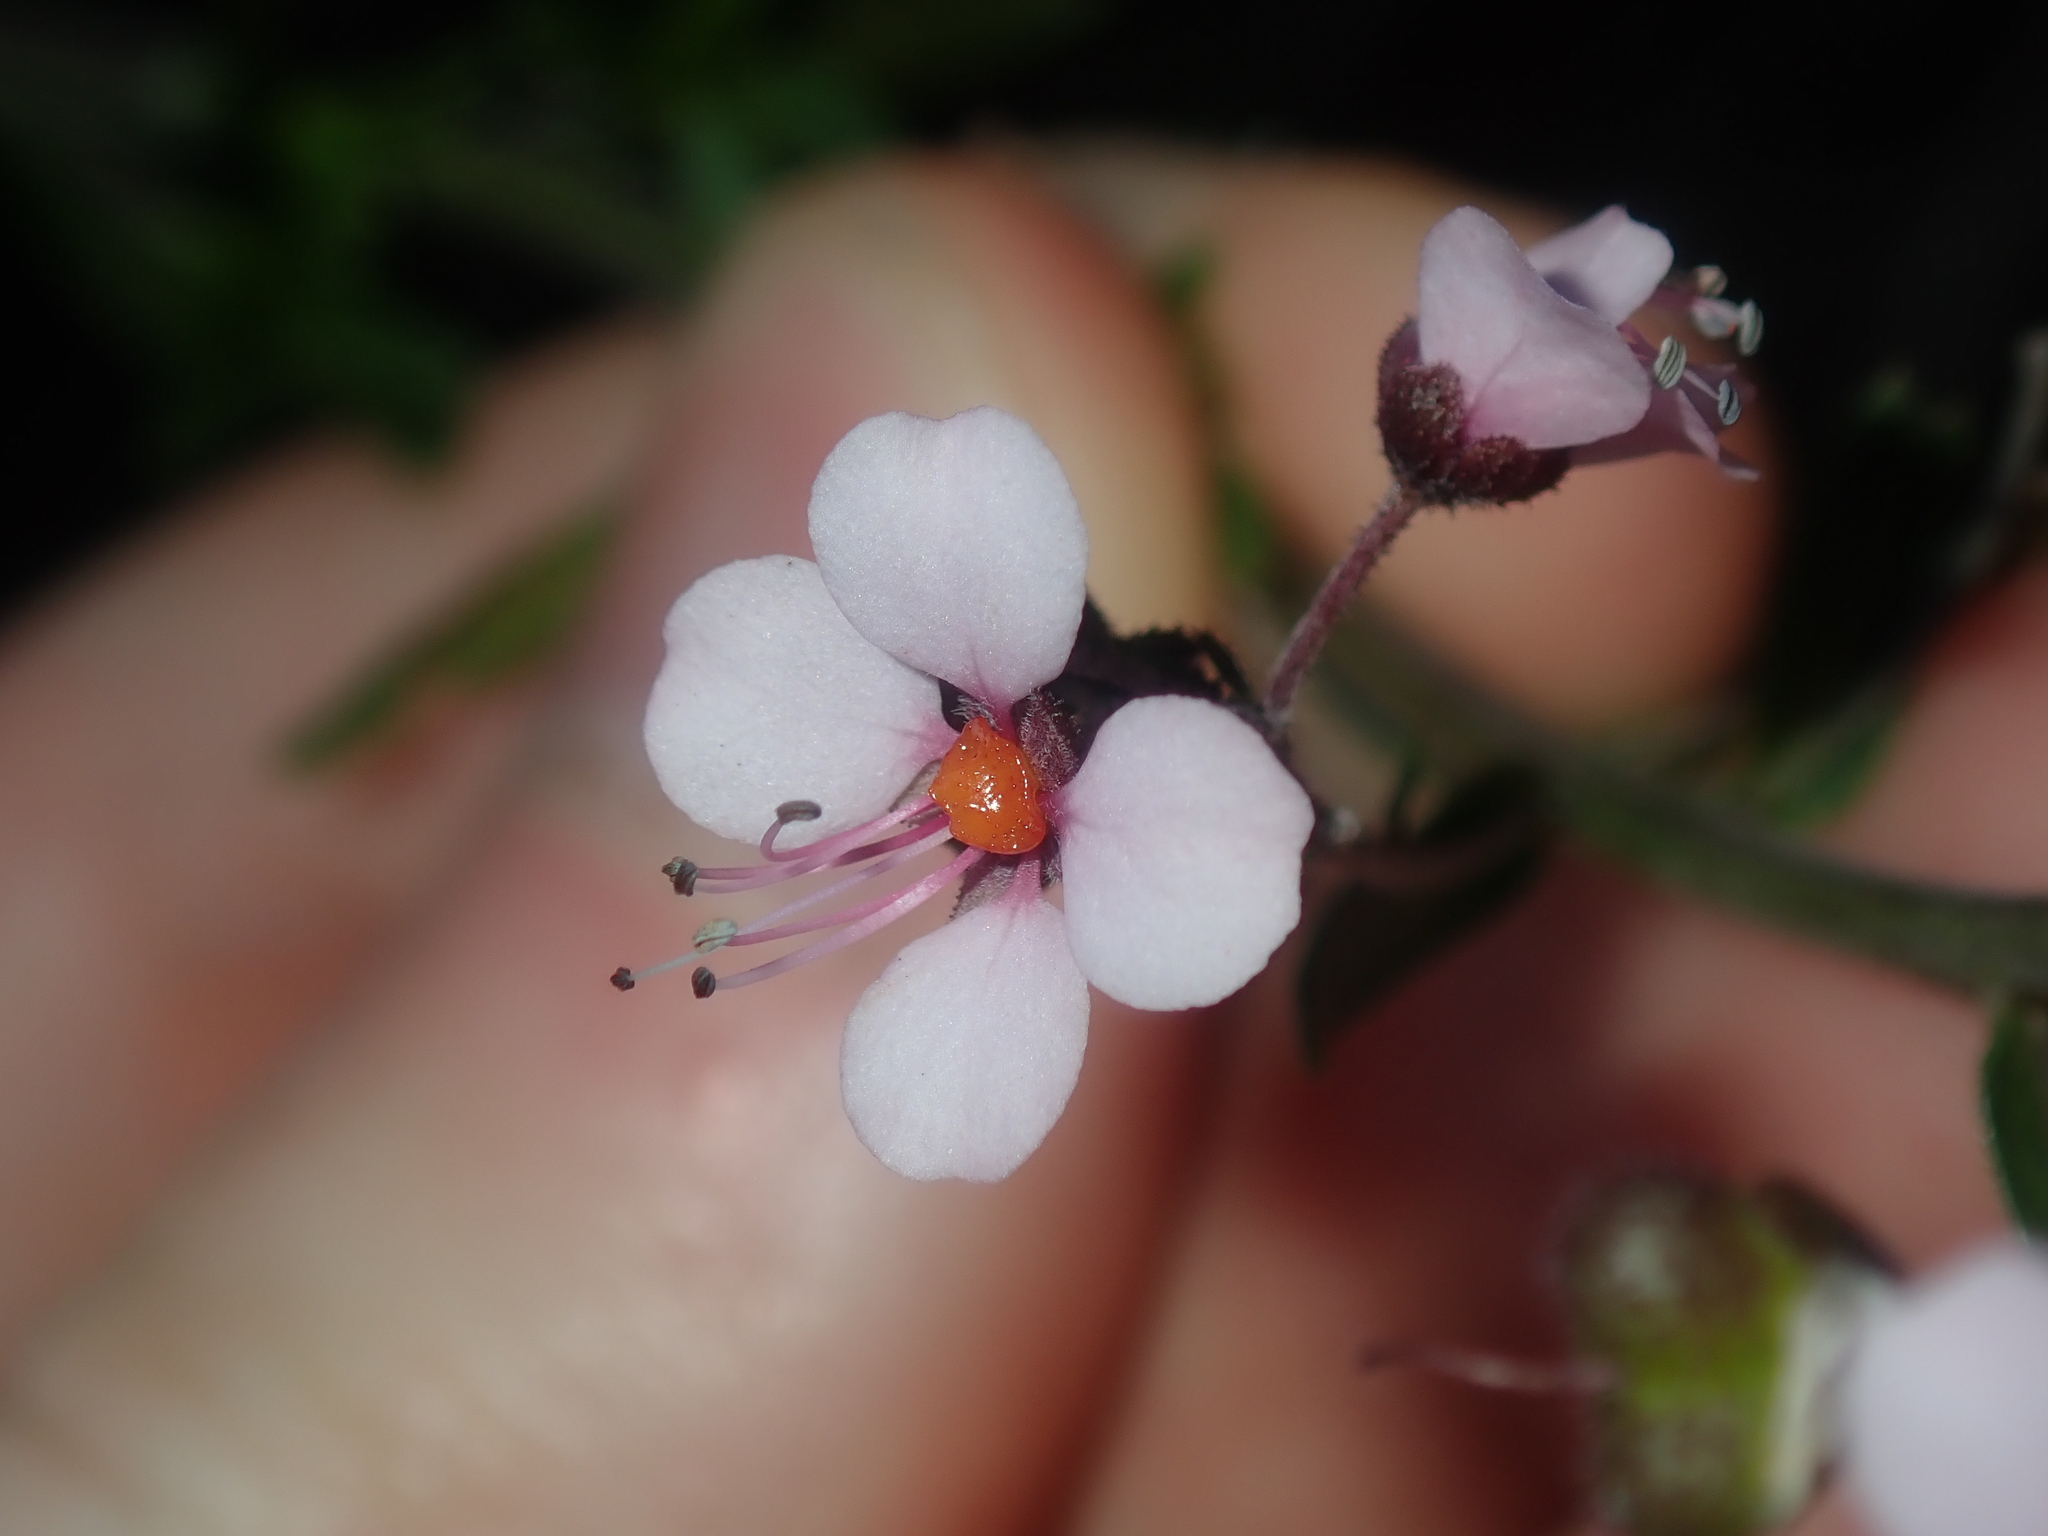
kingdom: Plantae
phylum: Tracheophyta
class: Magnoliopsida
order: Sapindales
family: Sapindaceae
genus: Diplopeltis
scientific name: Diplopeltis huegelii
